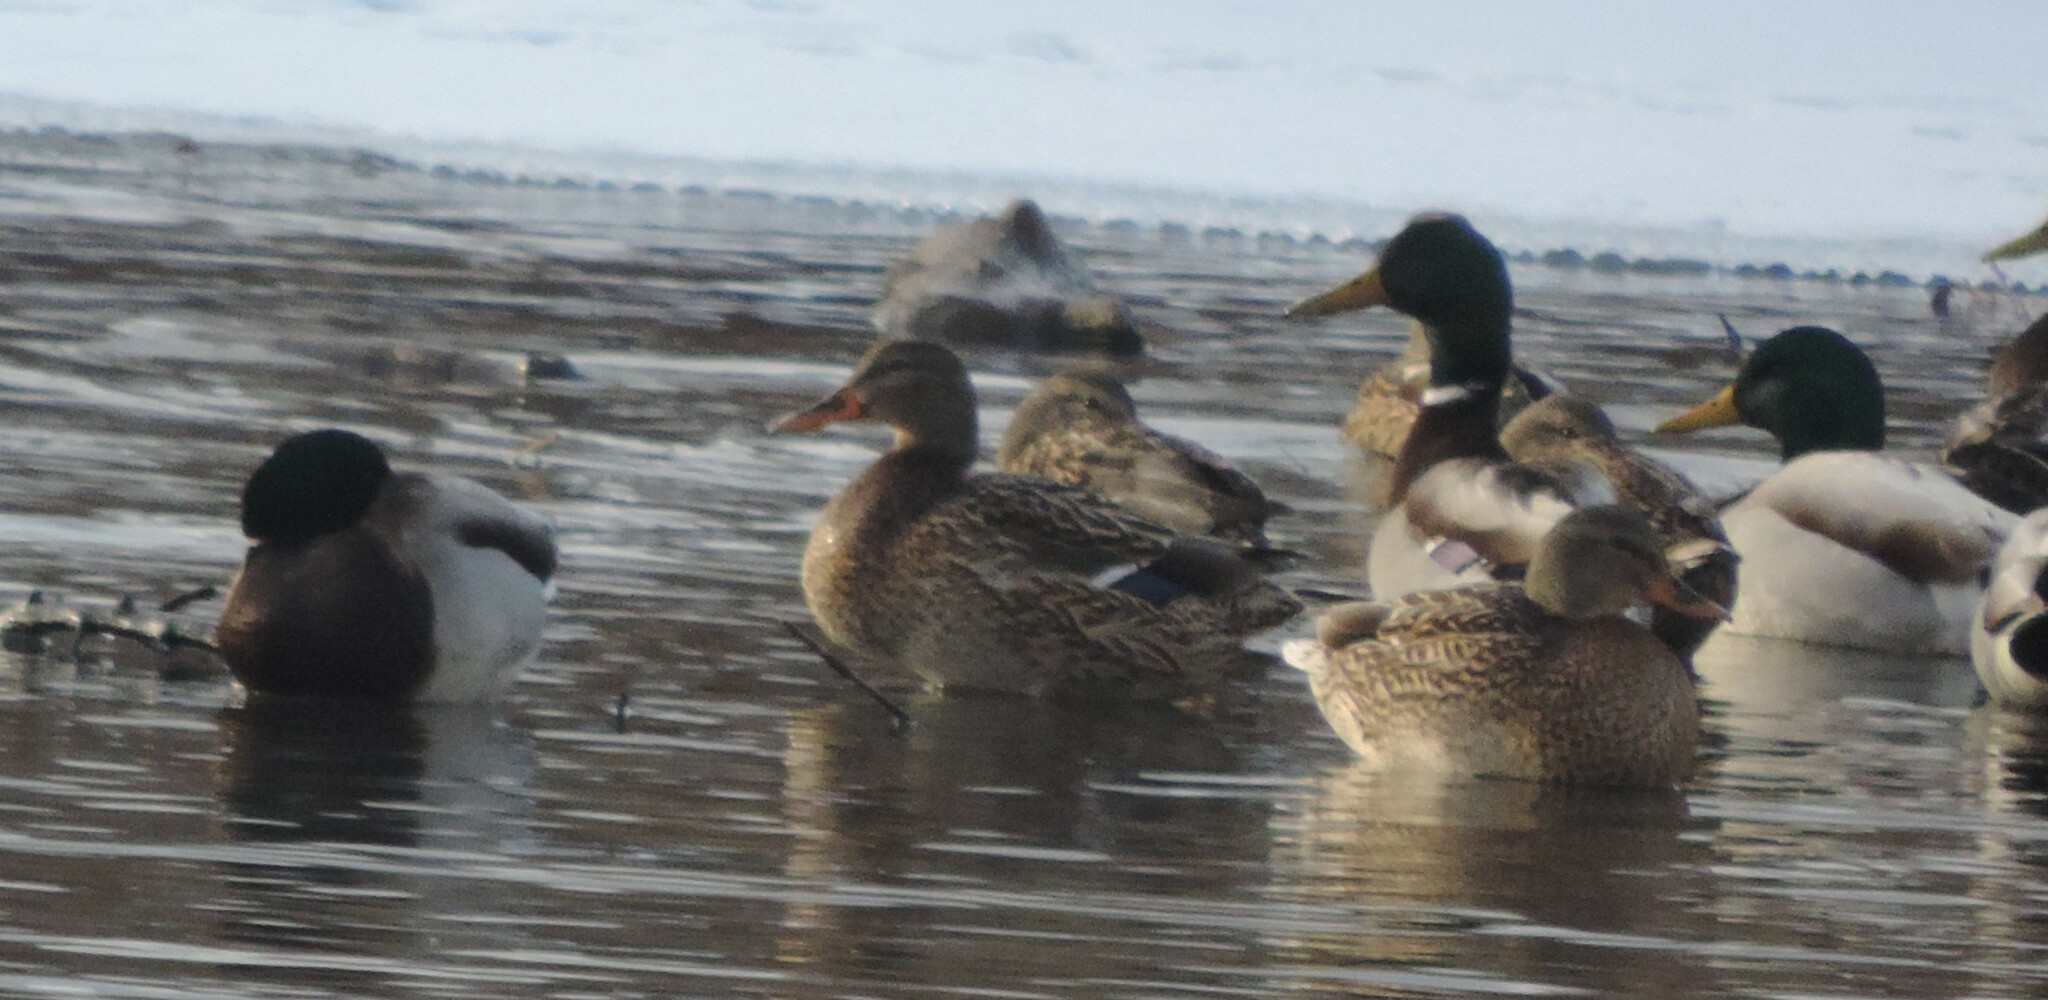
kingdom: Animalia
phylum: Chordata
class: Aves
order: Anseriformes
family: Anatidae
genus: Anas
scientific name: Anas platyrhynchos
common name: Mallard
